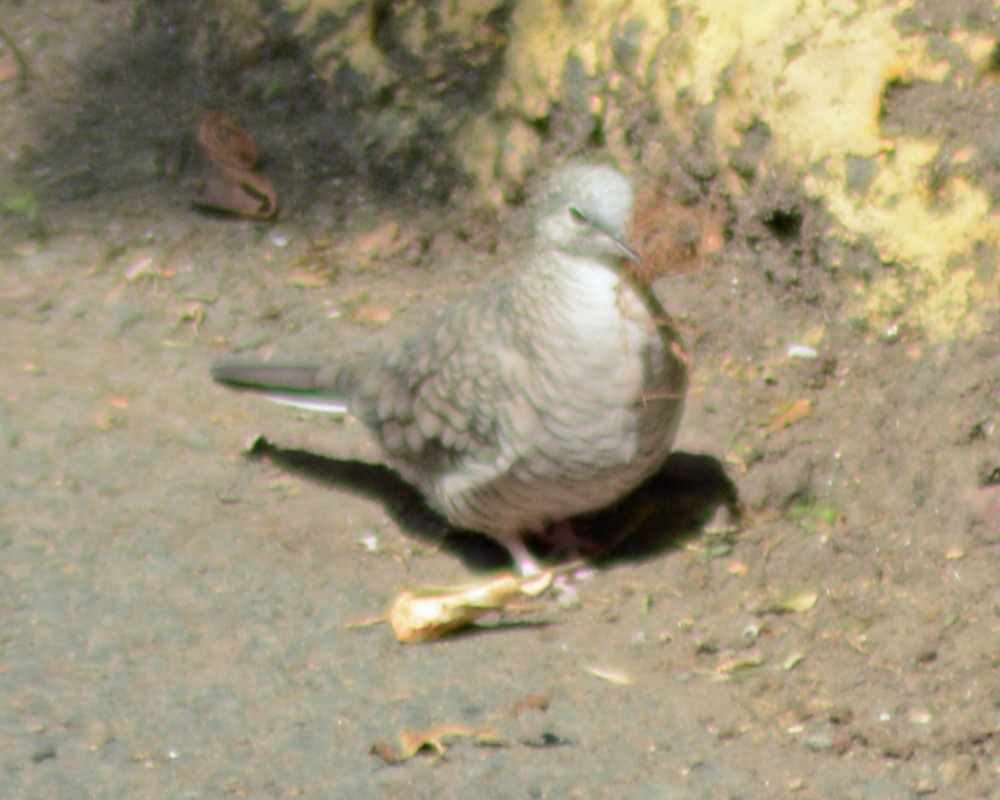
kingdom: Animalia
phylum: Chordata
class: Aves
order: Columbiformes
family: Columbidae
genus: Columbina
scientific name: Columbina inca
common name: Inca dove
